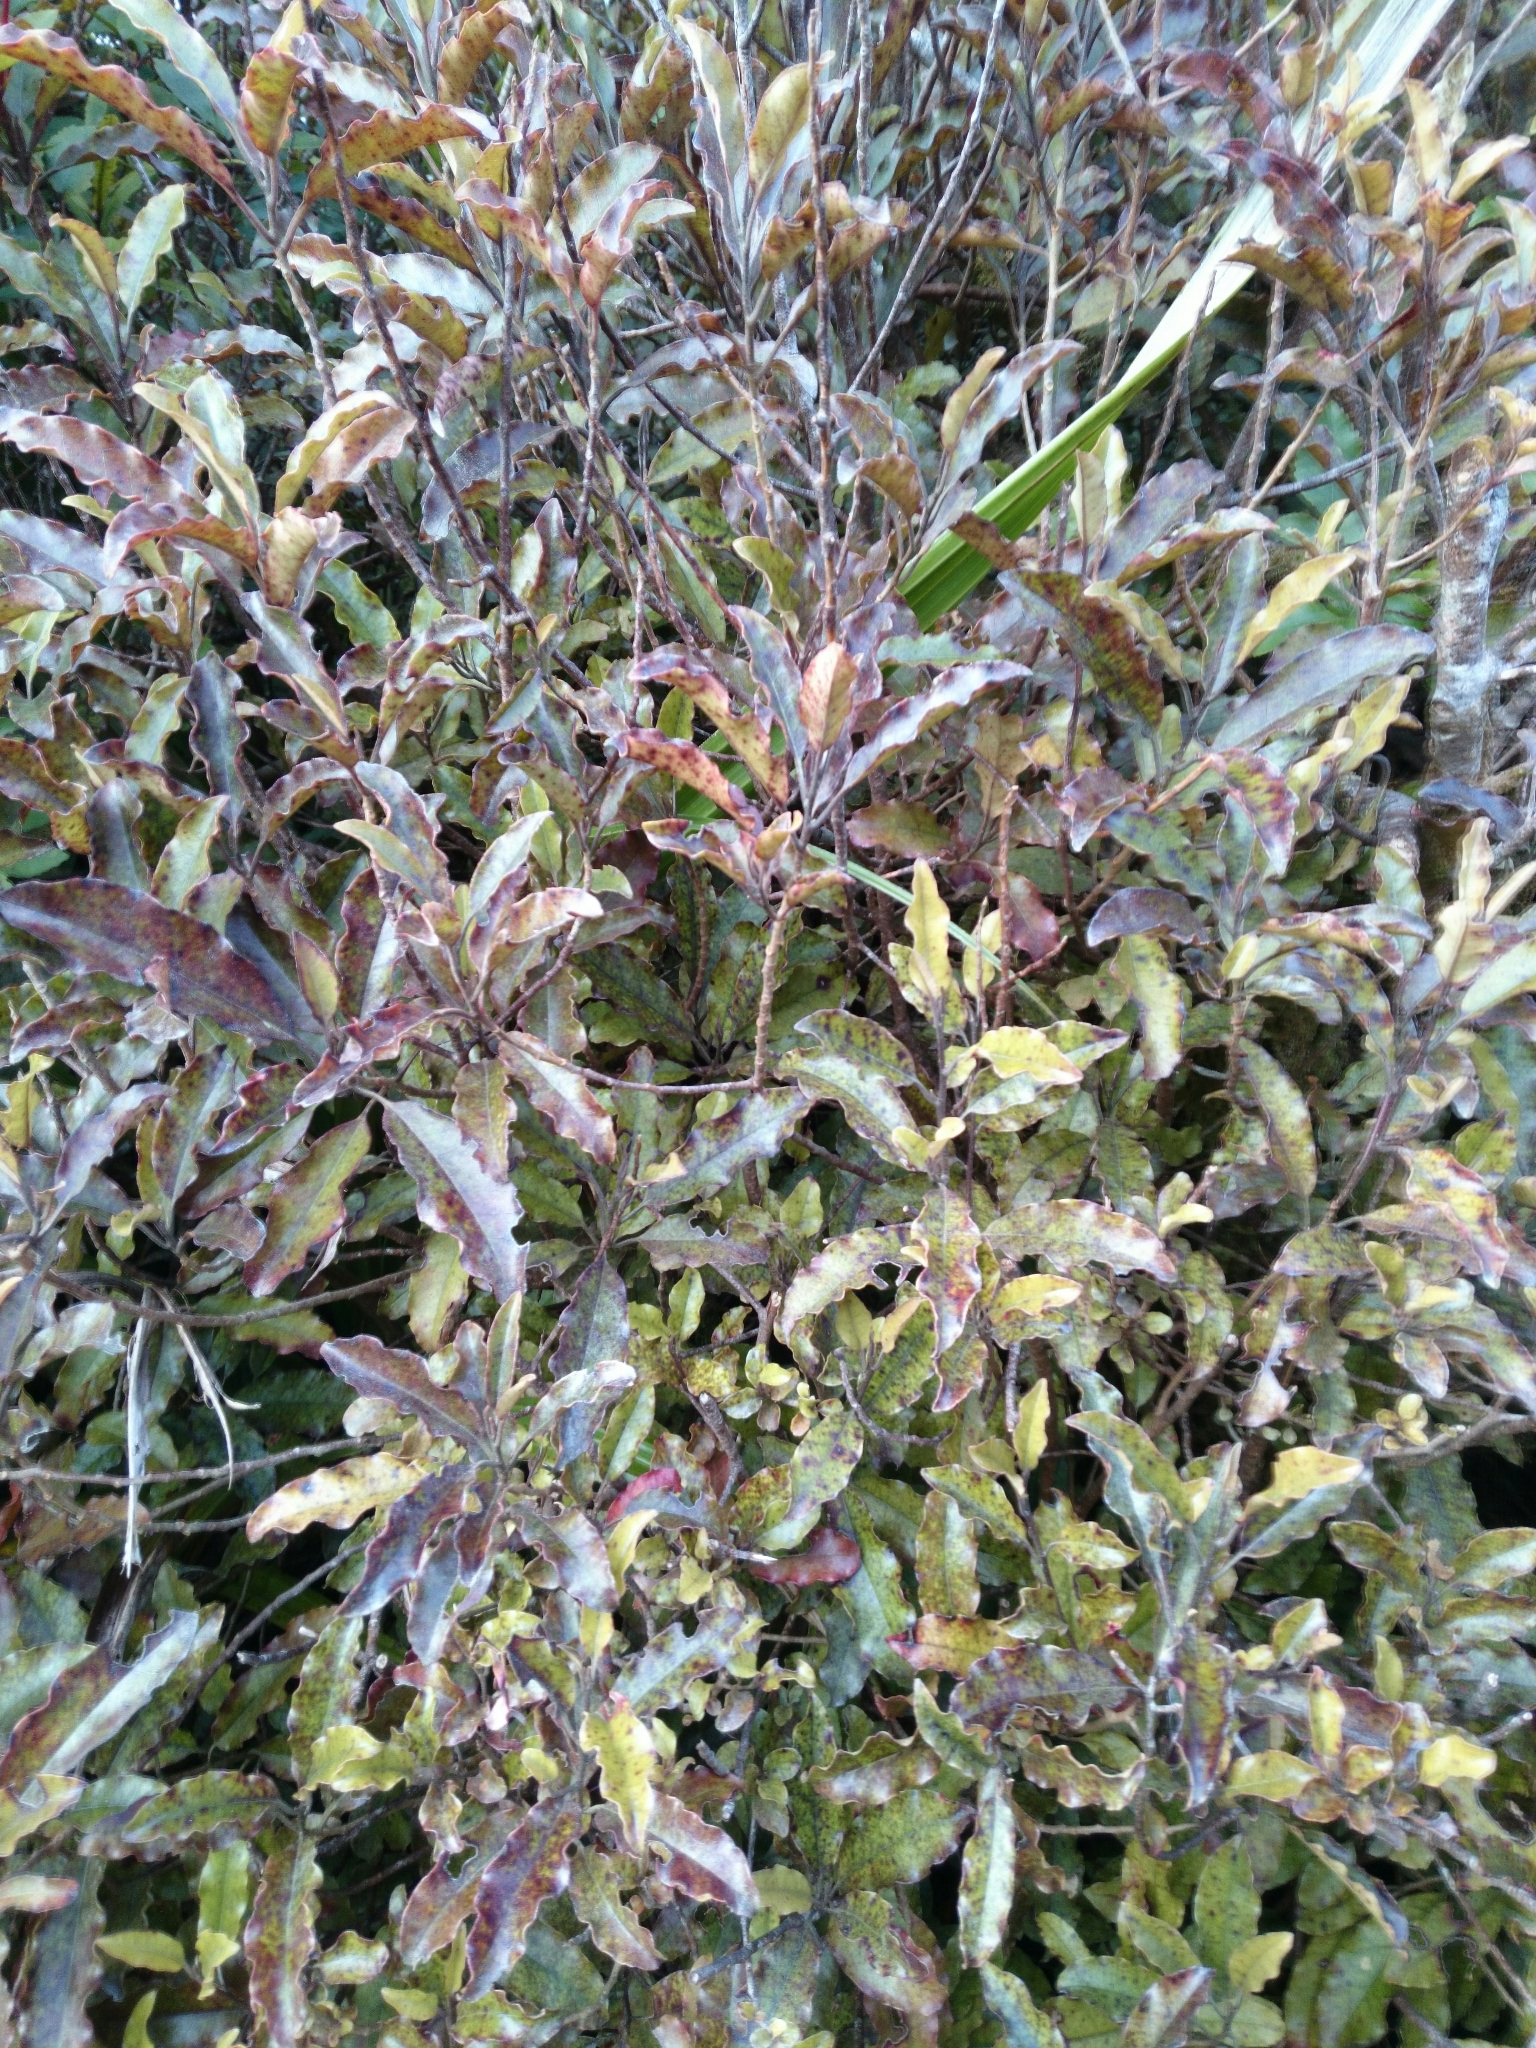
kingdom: Plantae
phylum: Tracheophyta
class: Magnoliopsida
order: Paracryphiales
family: Paracryphiaceae
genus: Quintinia
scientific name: Quintinia serrata
